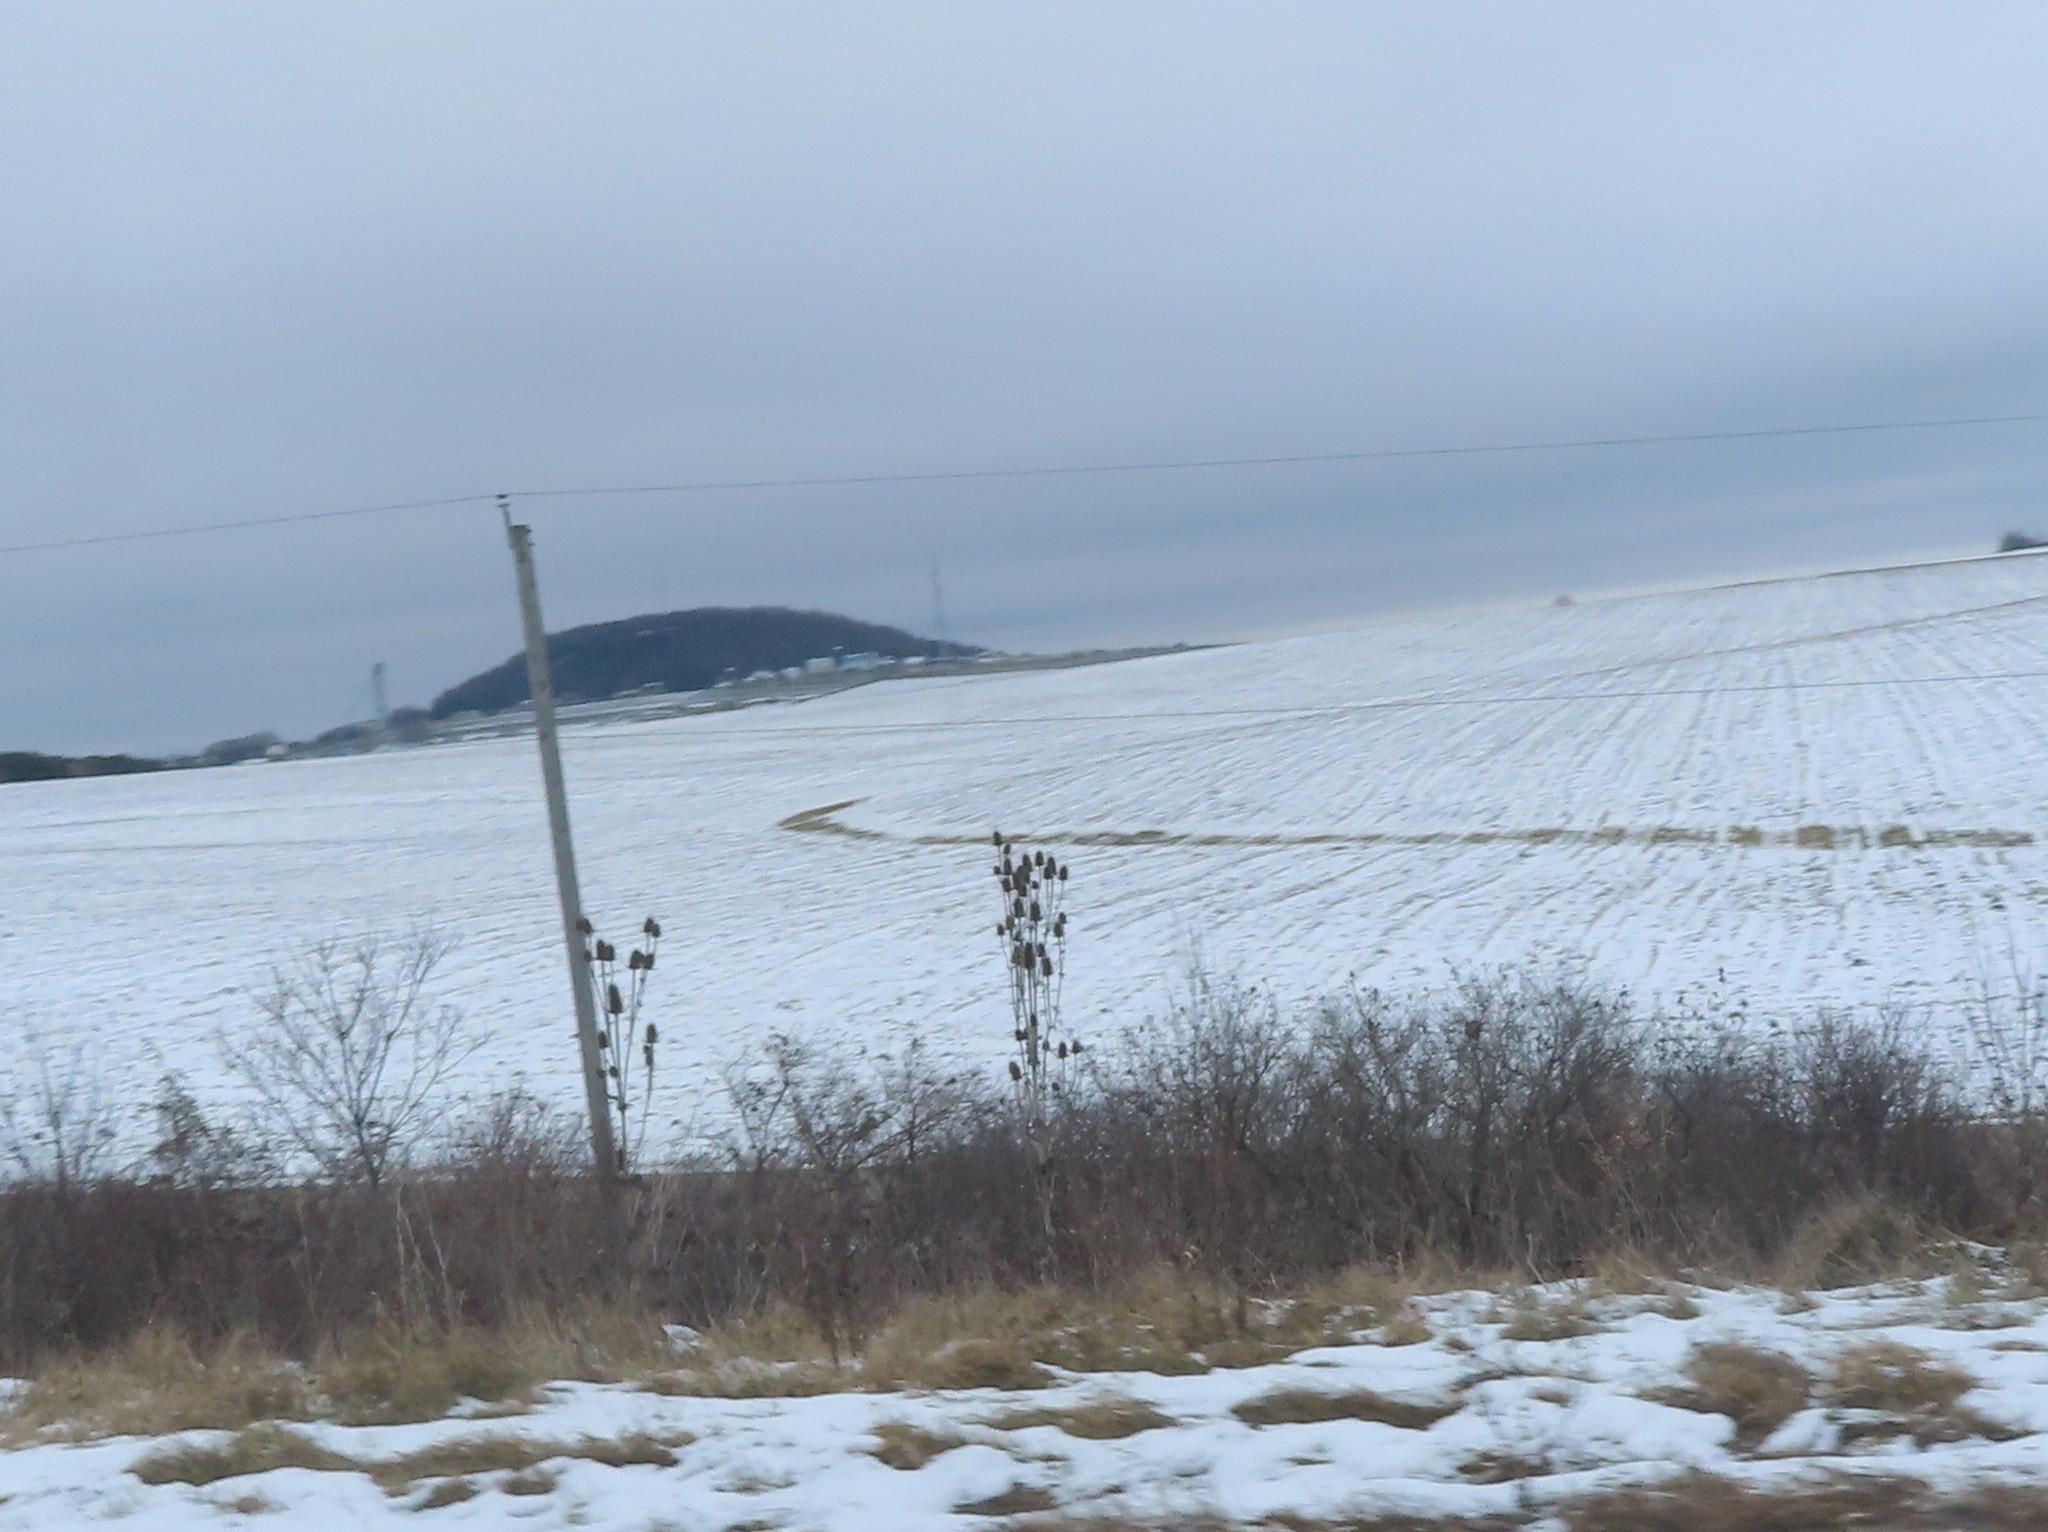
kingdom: Plantae
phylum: Tracheophyta
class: Magnoliopsida
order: Dipsacales
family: Caprifoliaceae
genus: Dipsacus
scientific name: Dipsacus laciniatus
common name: Cut-leaved teasel
